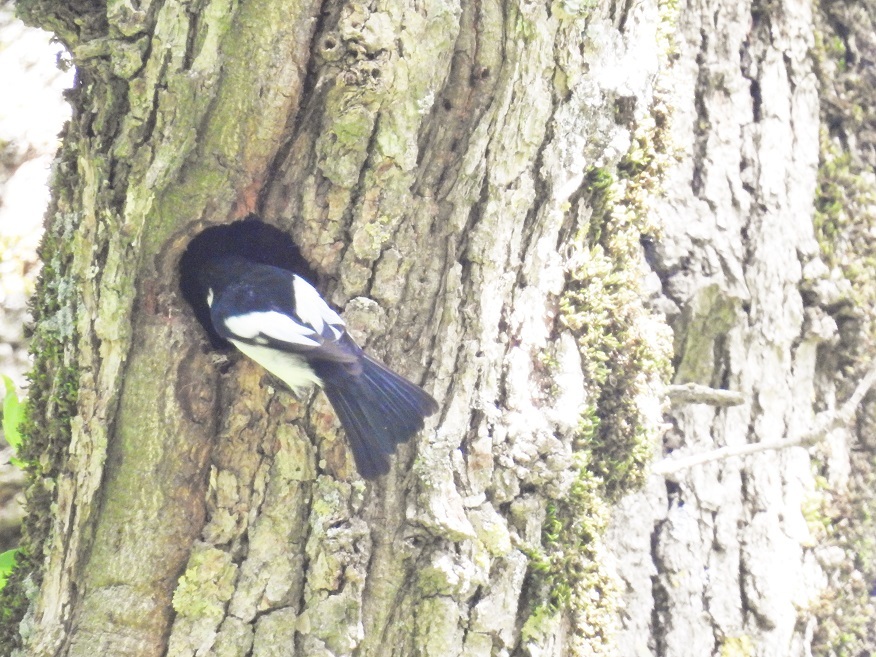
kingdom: Animalia
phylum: Chordata
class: Aves
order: Passeriformes
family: Muscicapidae
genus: Ficedula
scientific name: Ficedula speculigera
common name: Atlas pied flycatcher
